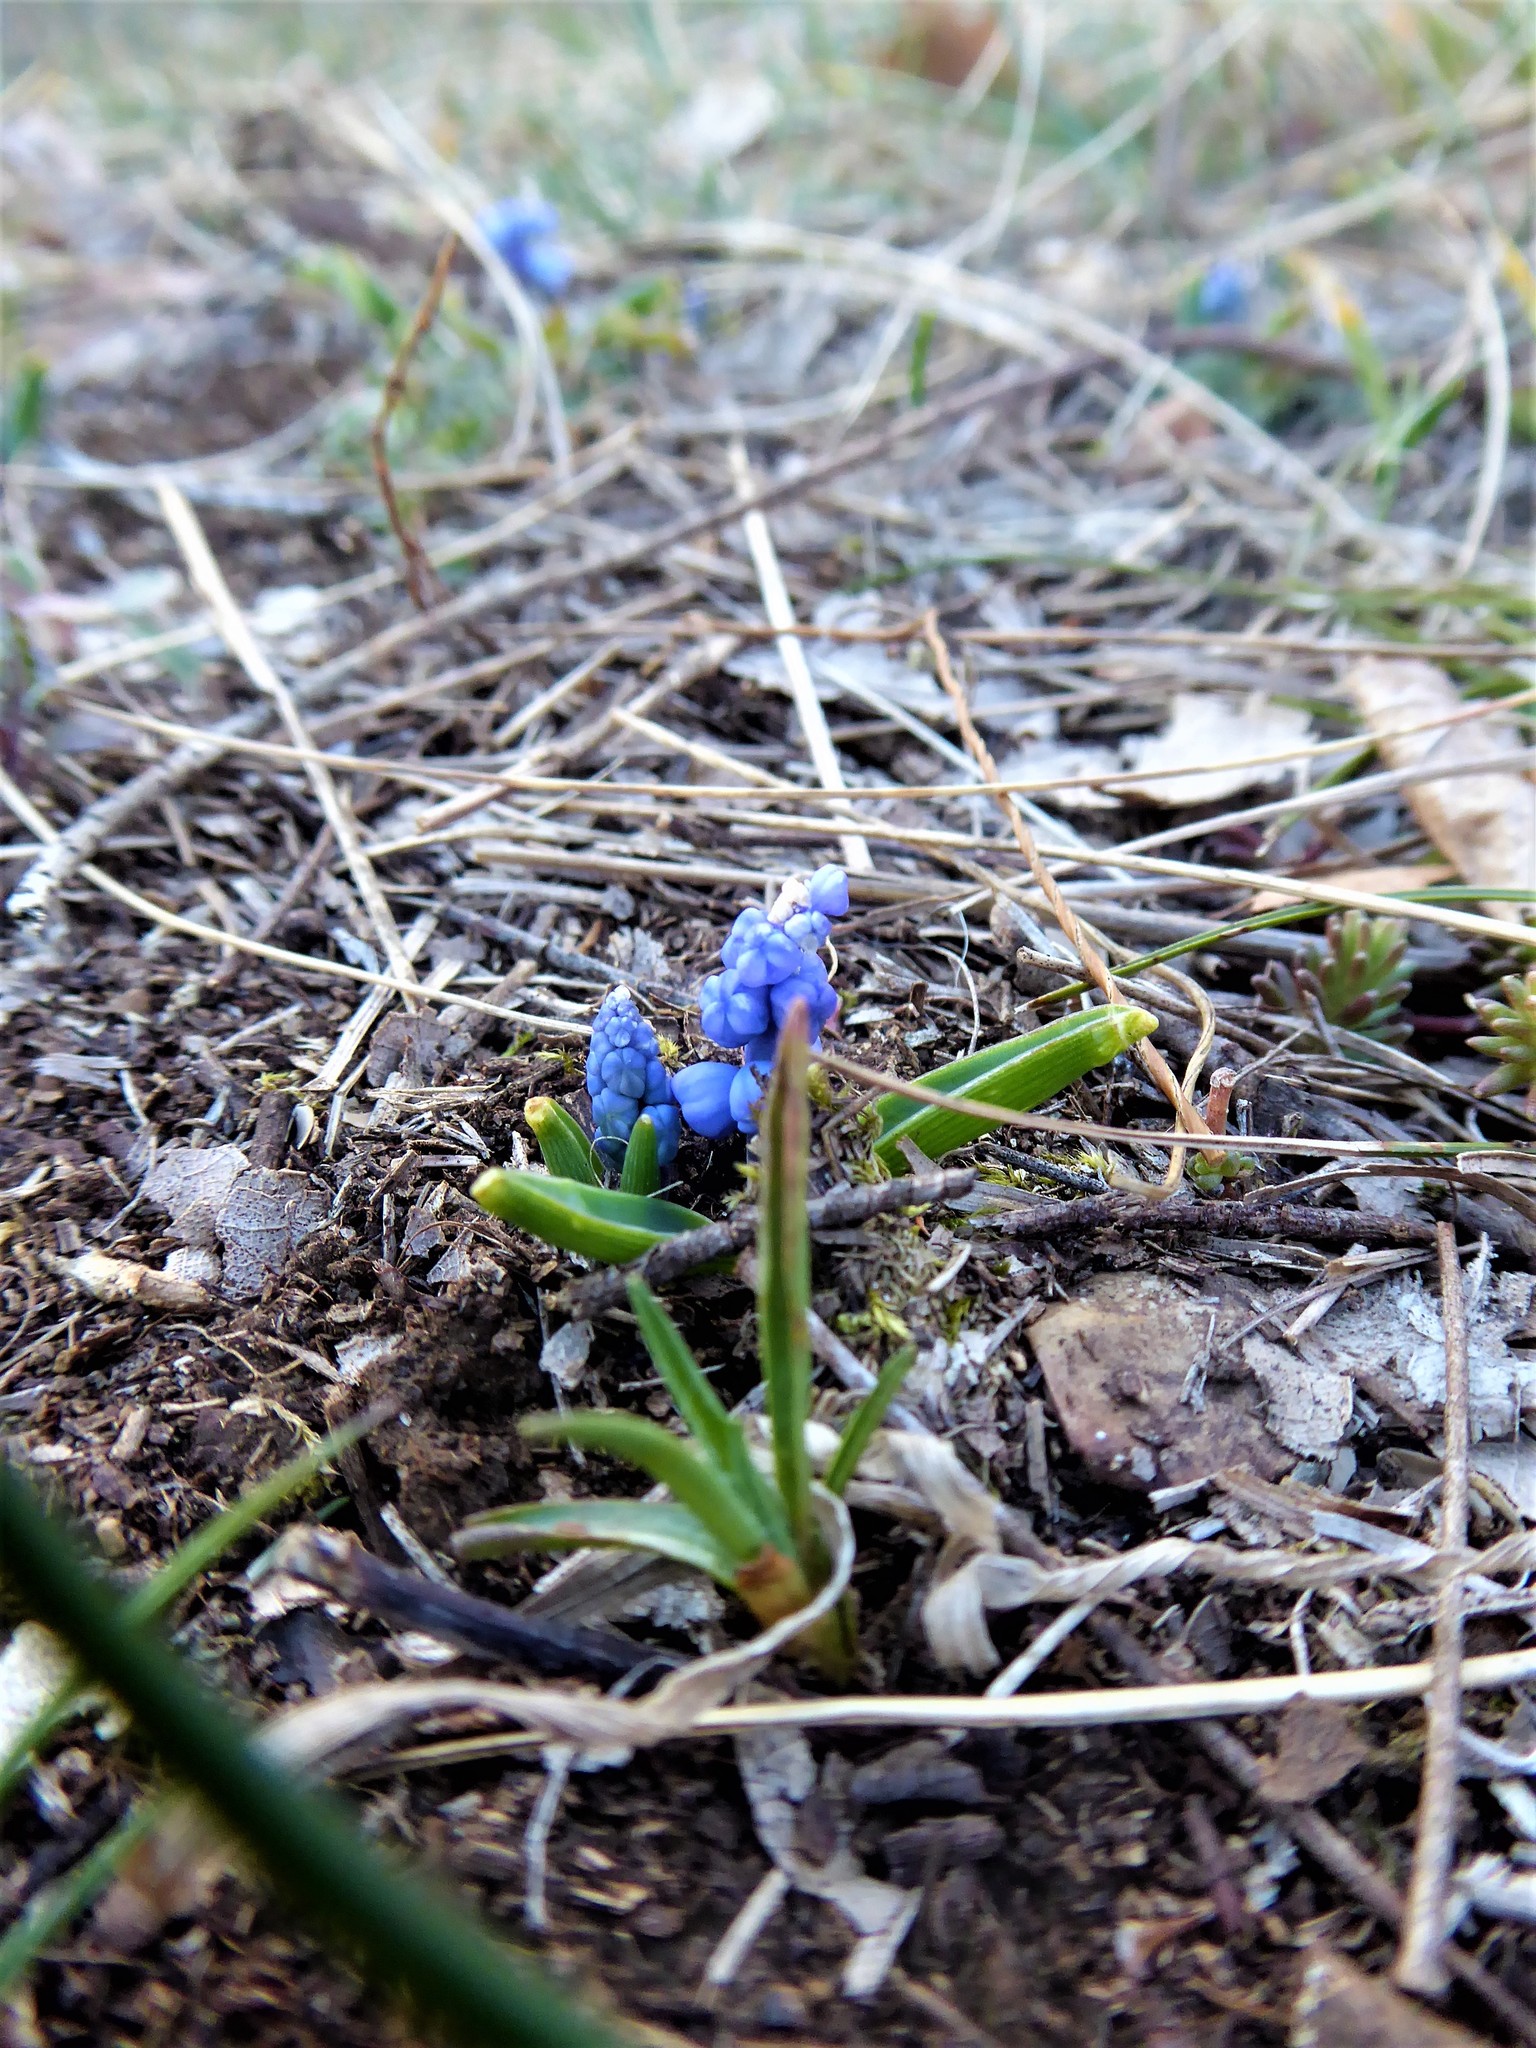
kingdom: Plantae
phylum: Tracheophyta
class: Liliopsida
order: Asparagales
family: Asparagaceae
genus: Muscari
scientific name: Muscari azureum
